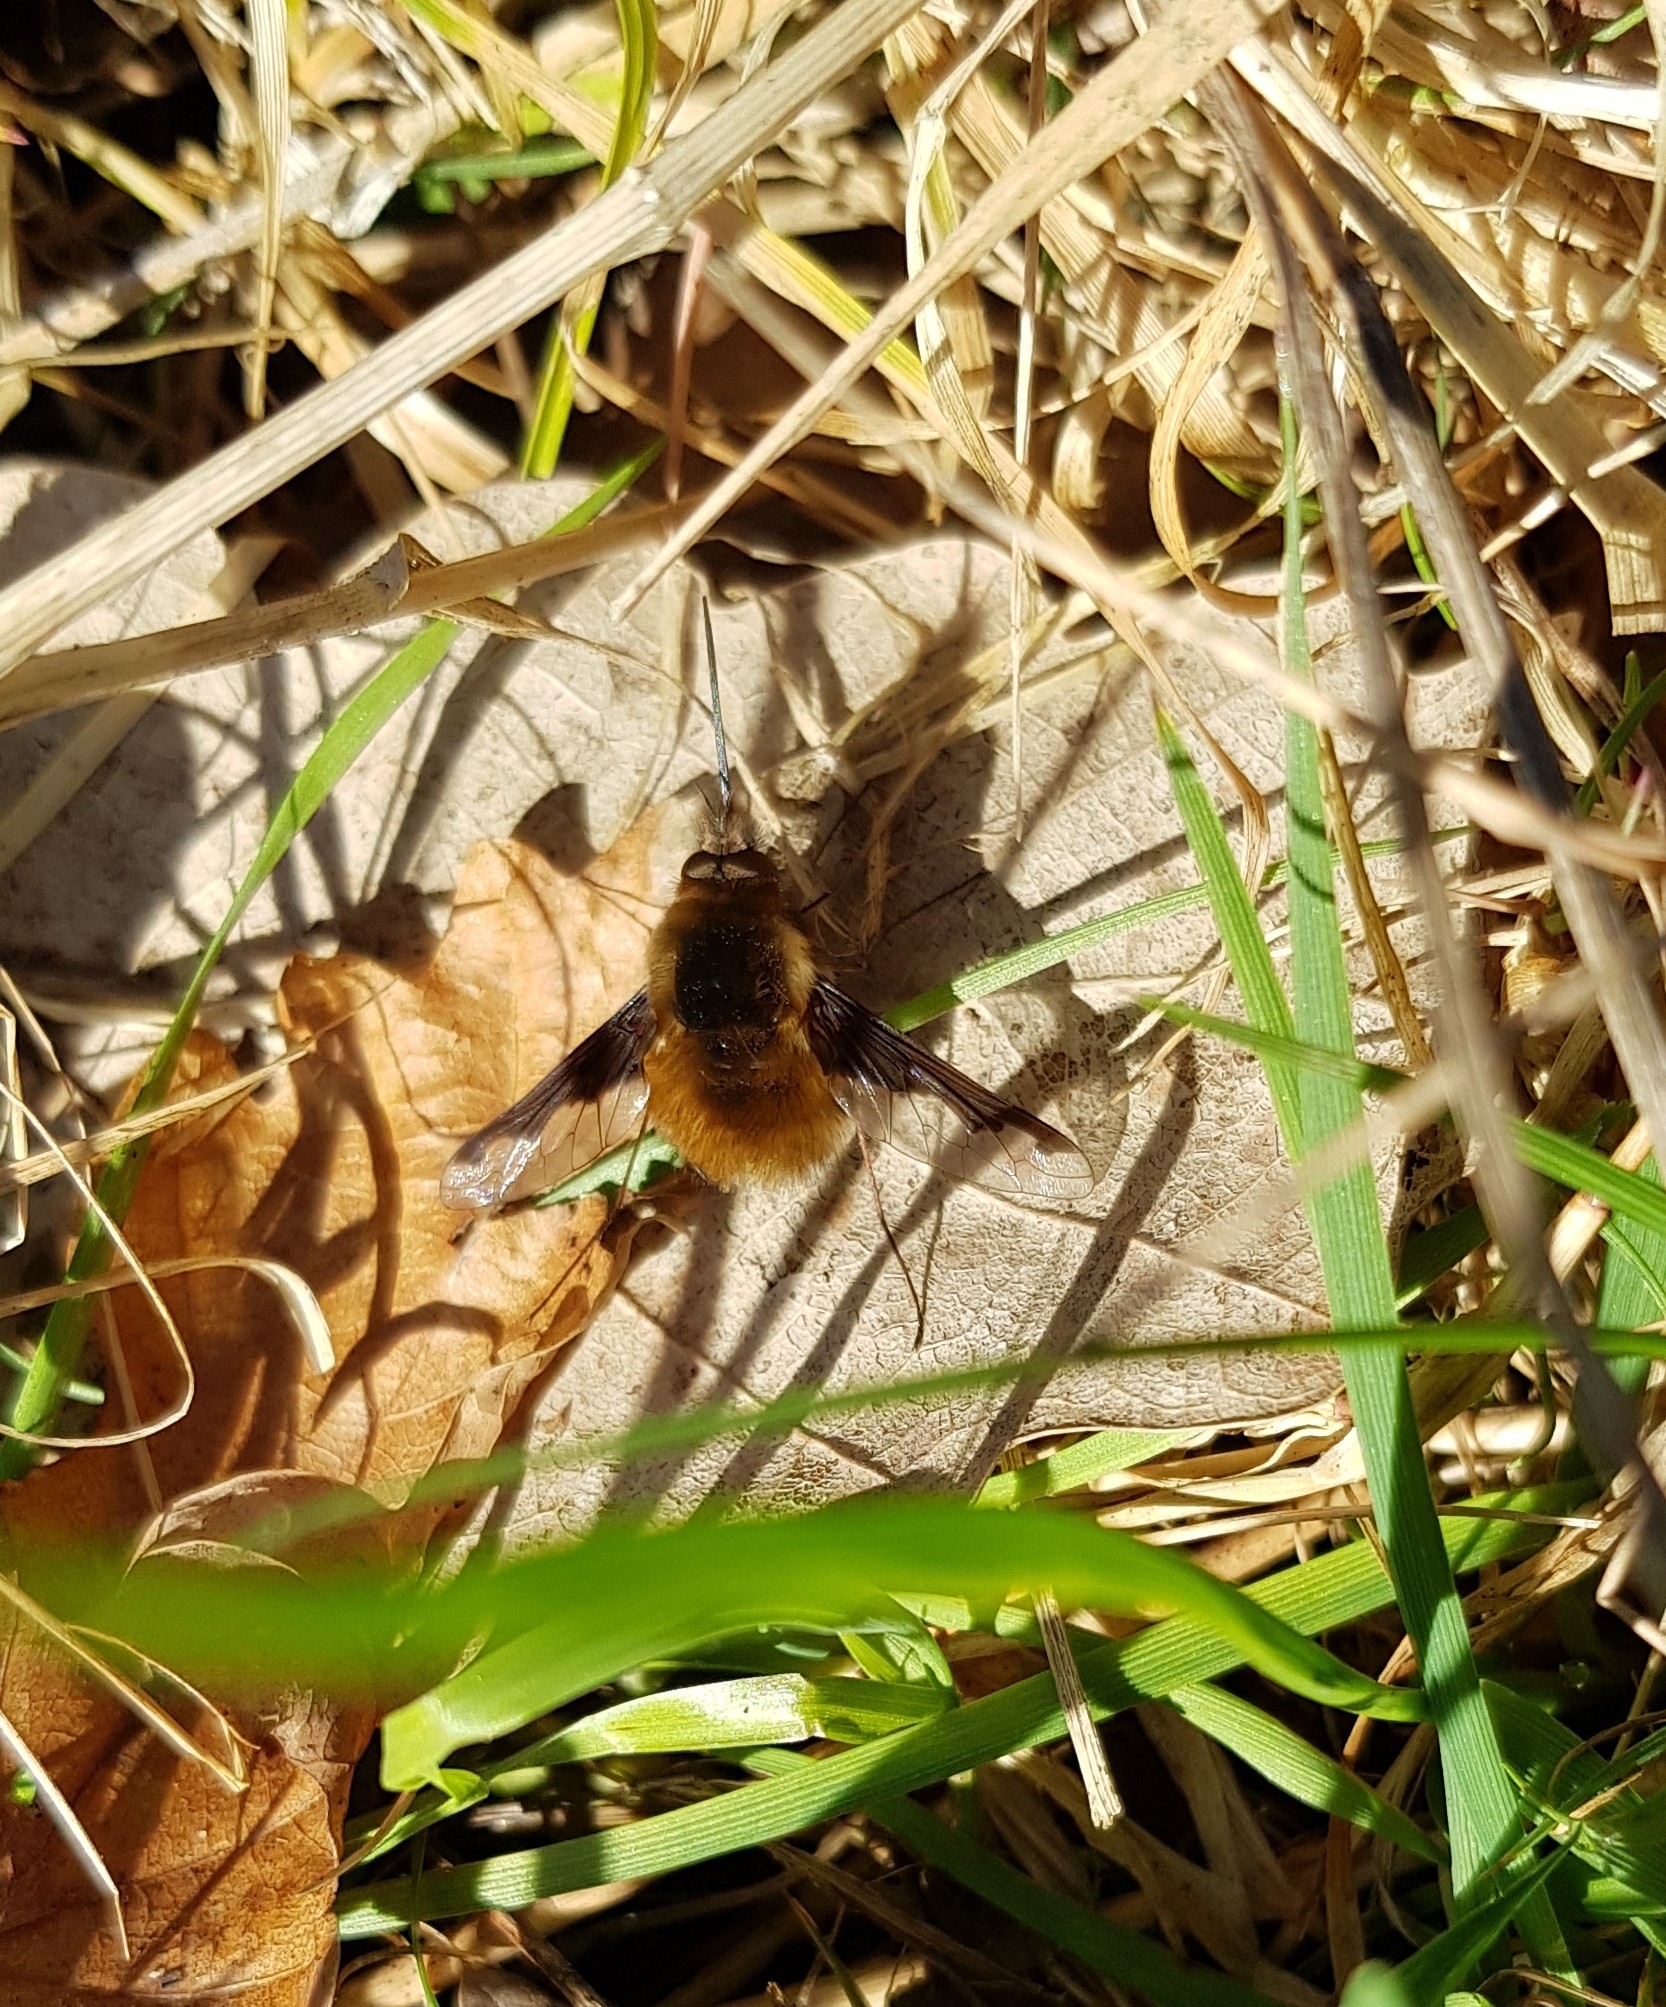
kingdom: Animalia
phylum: Arthropoda
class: Insecta
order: Diptera
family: Bombyliidae
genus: Bombylius
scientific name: Bombylius major
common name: Bee fly
